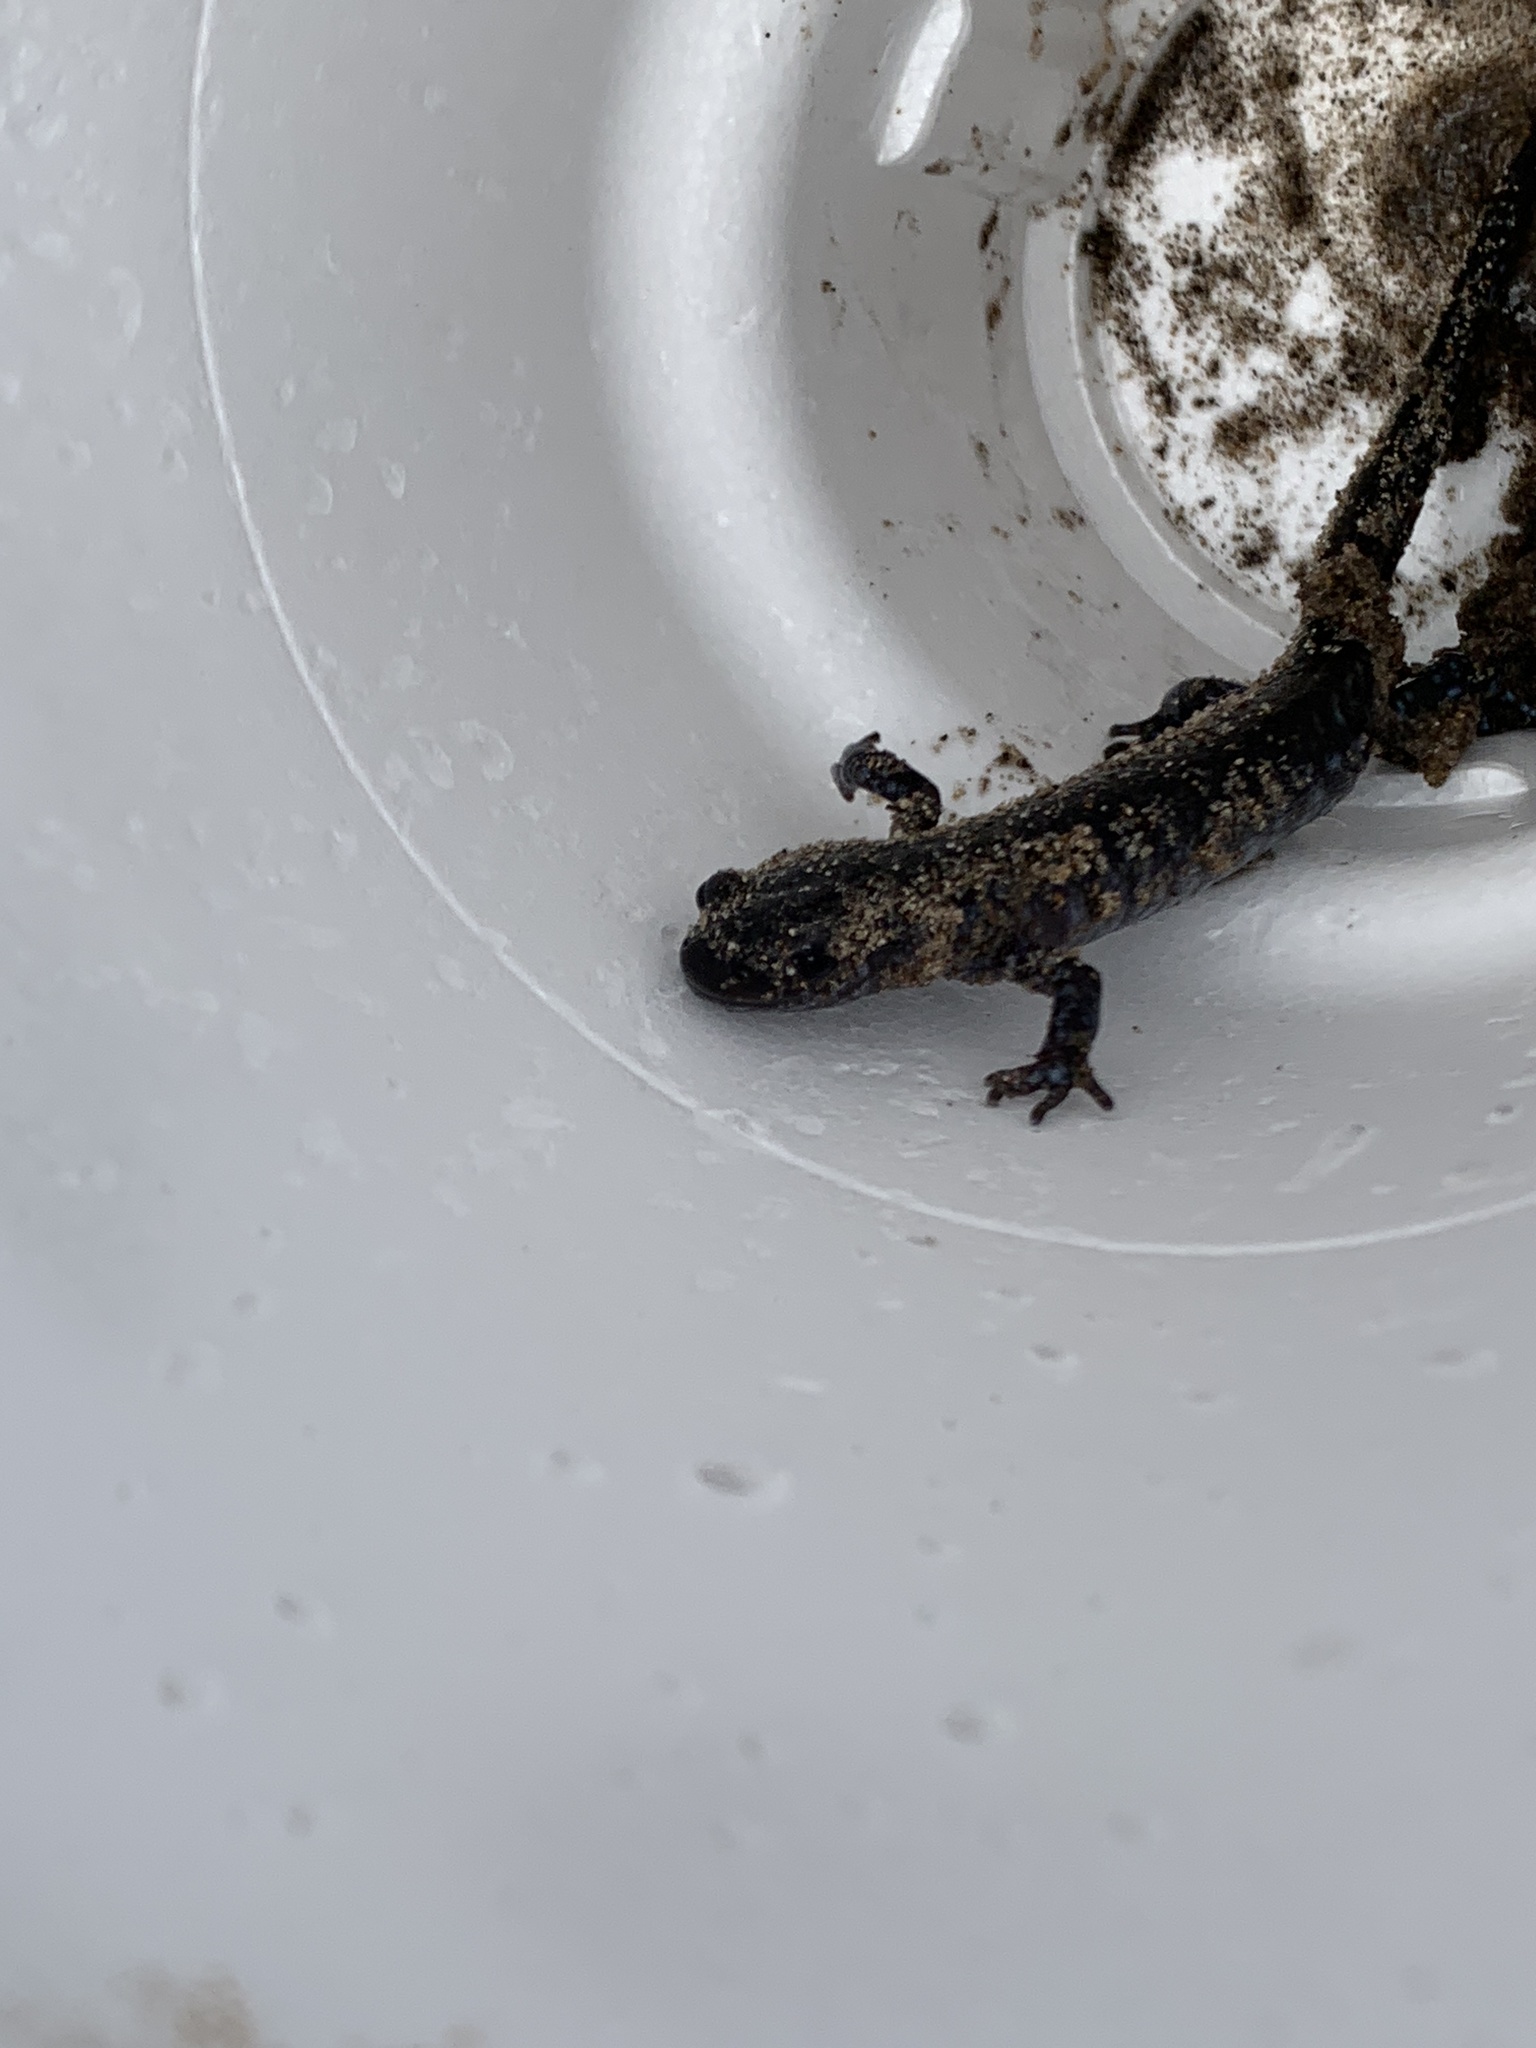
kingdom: Animalia
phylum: Chordata
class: Amphibia
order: Caudata
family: Ambystomatidae
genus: Ambystoma
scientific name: Ambystoma laterale
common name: Blue-spotted salamander
